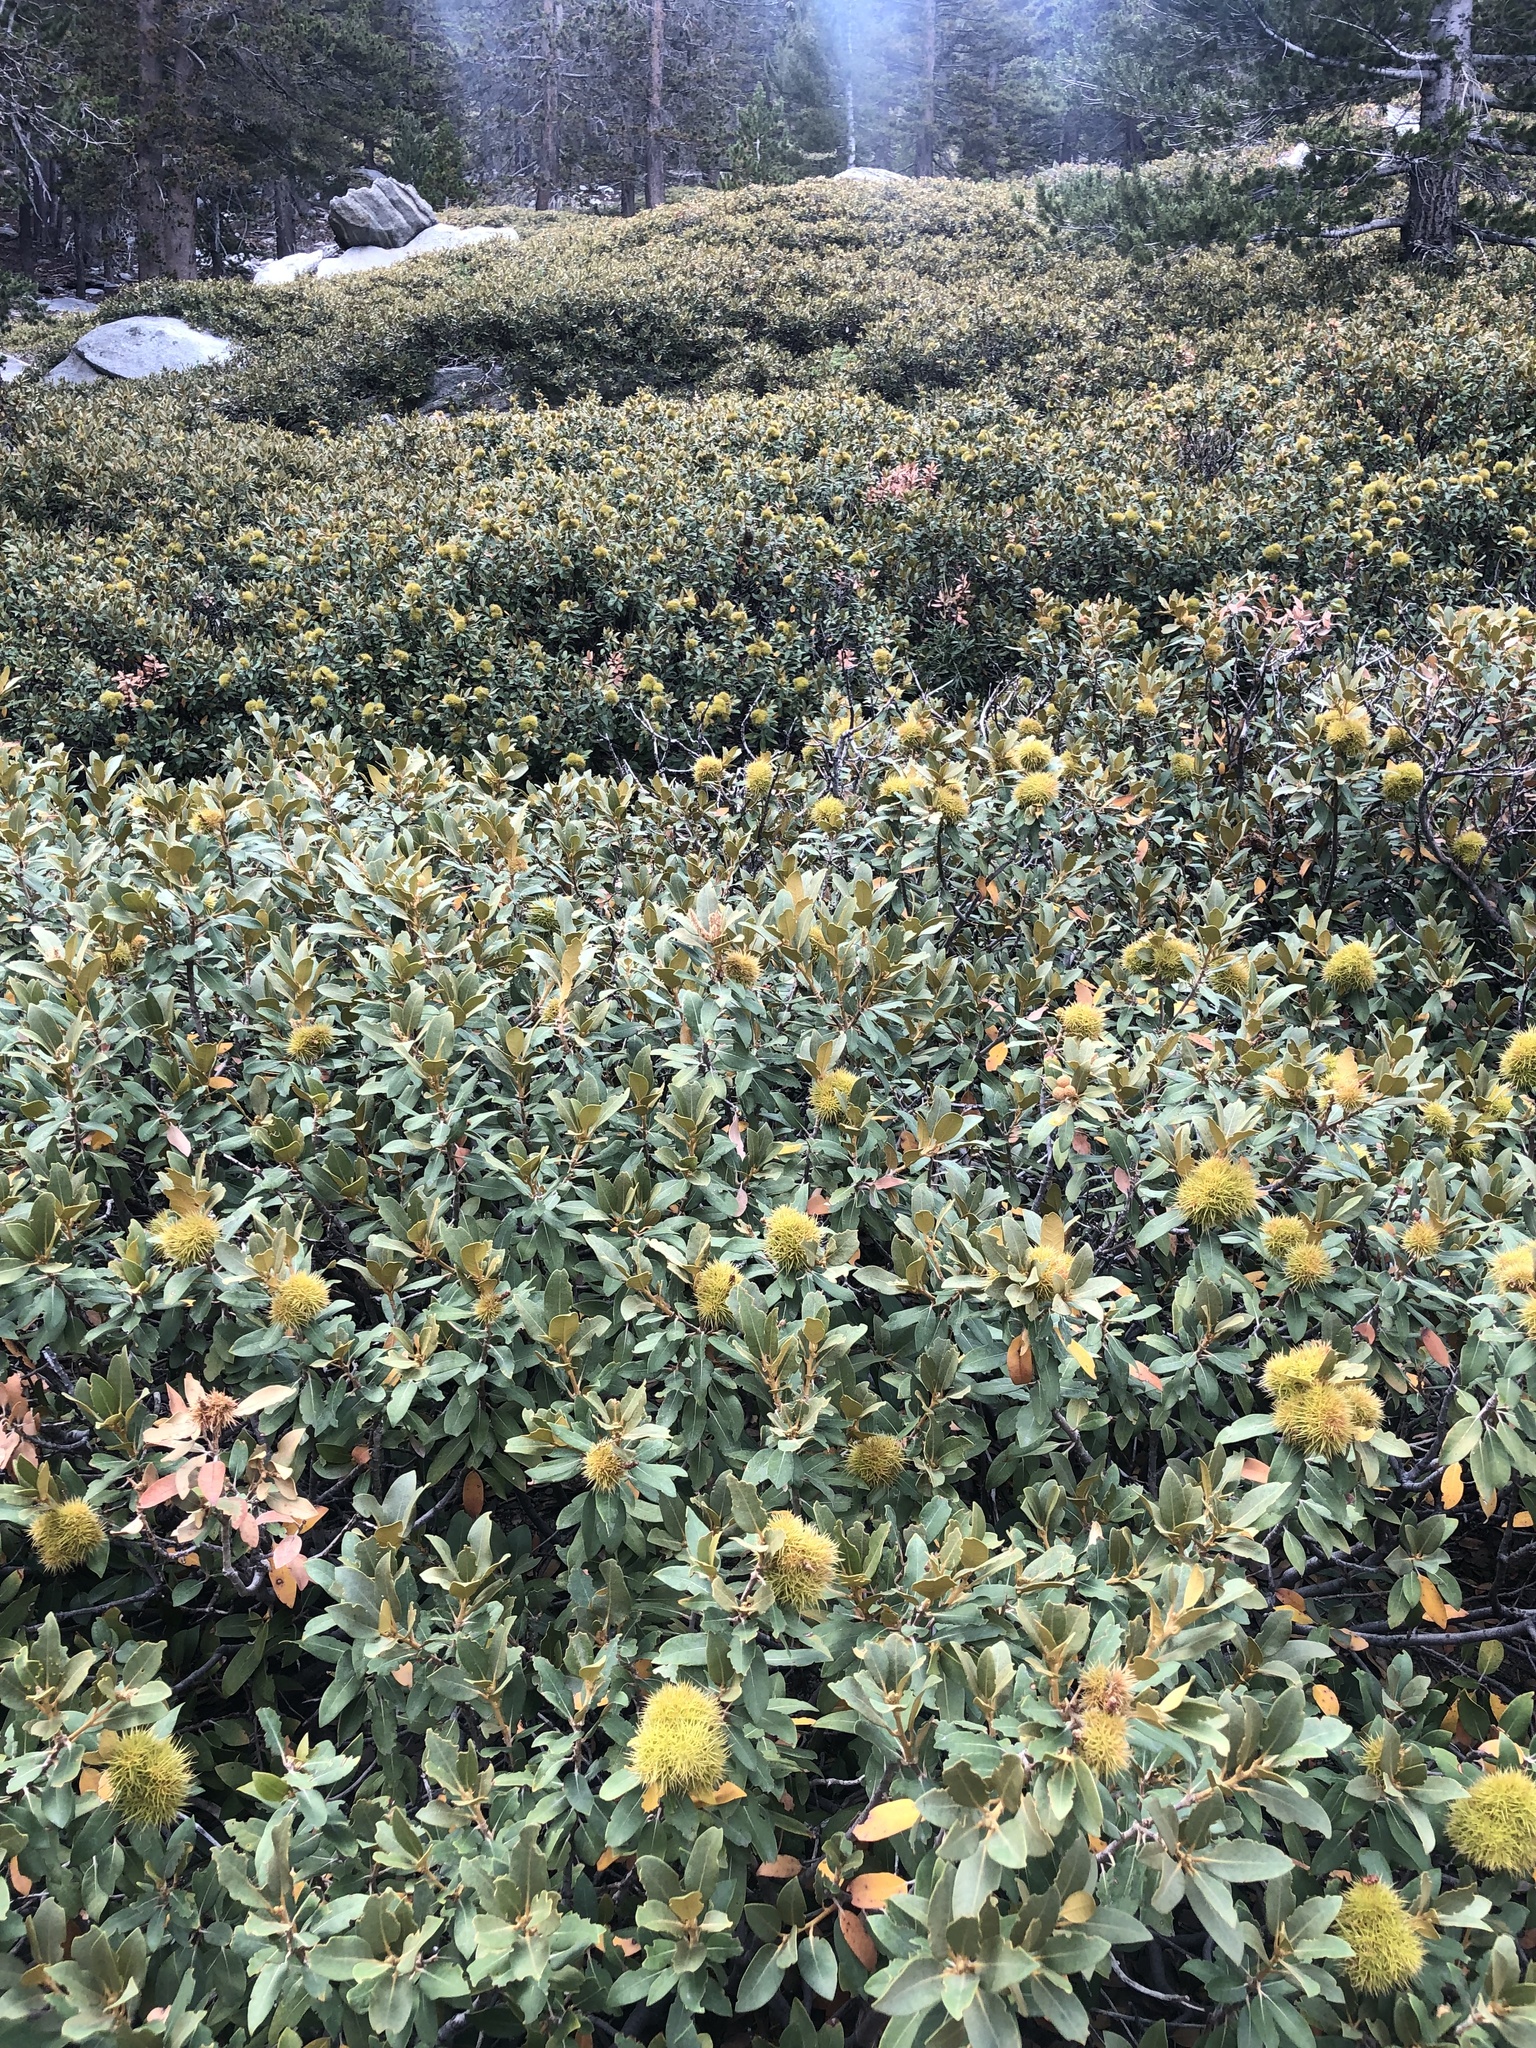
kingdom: Plantae
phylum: Tracheophyta
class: Magnoliopsida
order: Fagales
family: Fagaceae
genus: Chrysolepis
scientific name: Chrysolepis sempervirens
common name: Bush chinquapin
